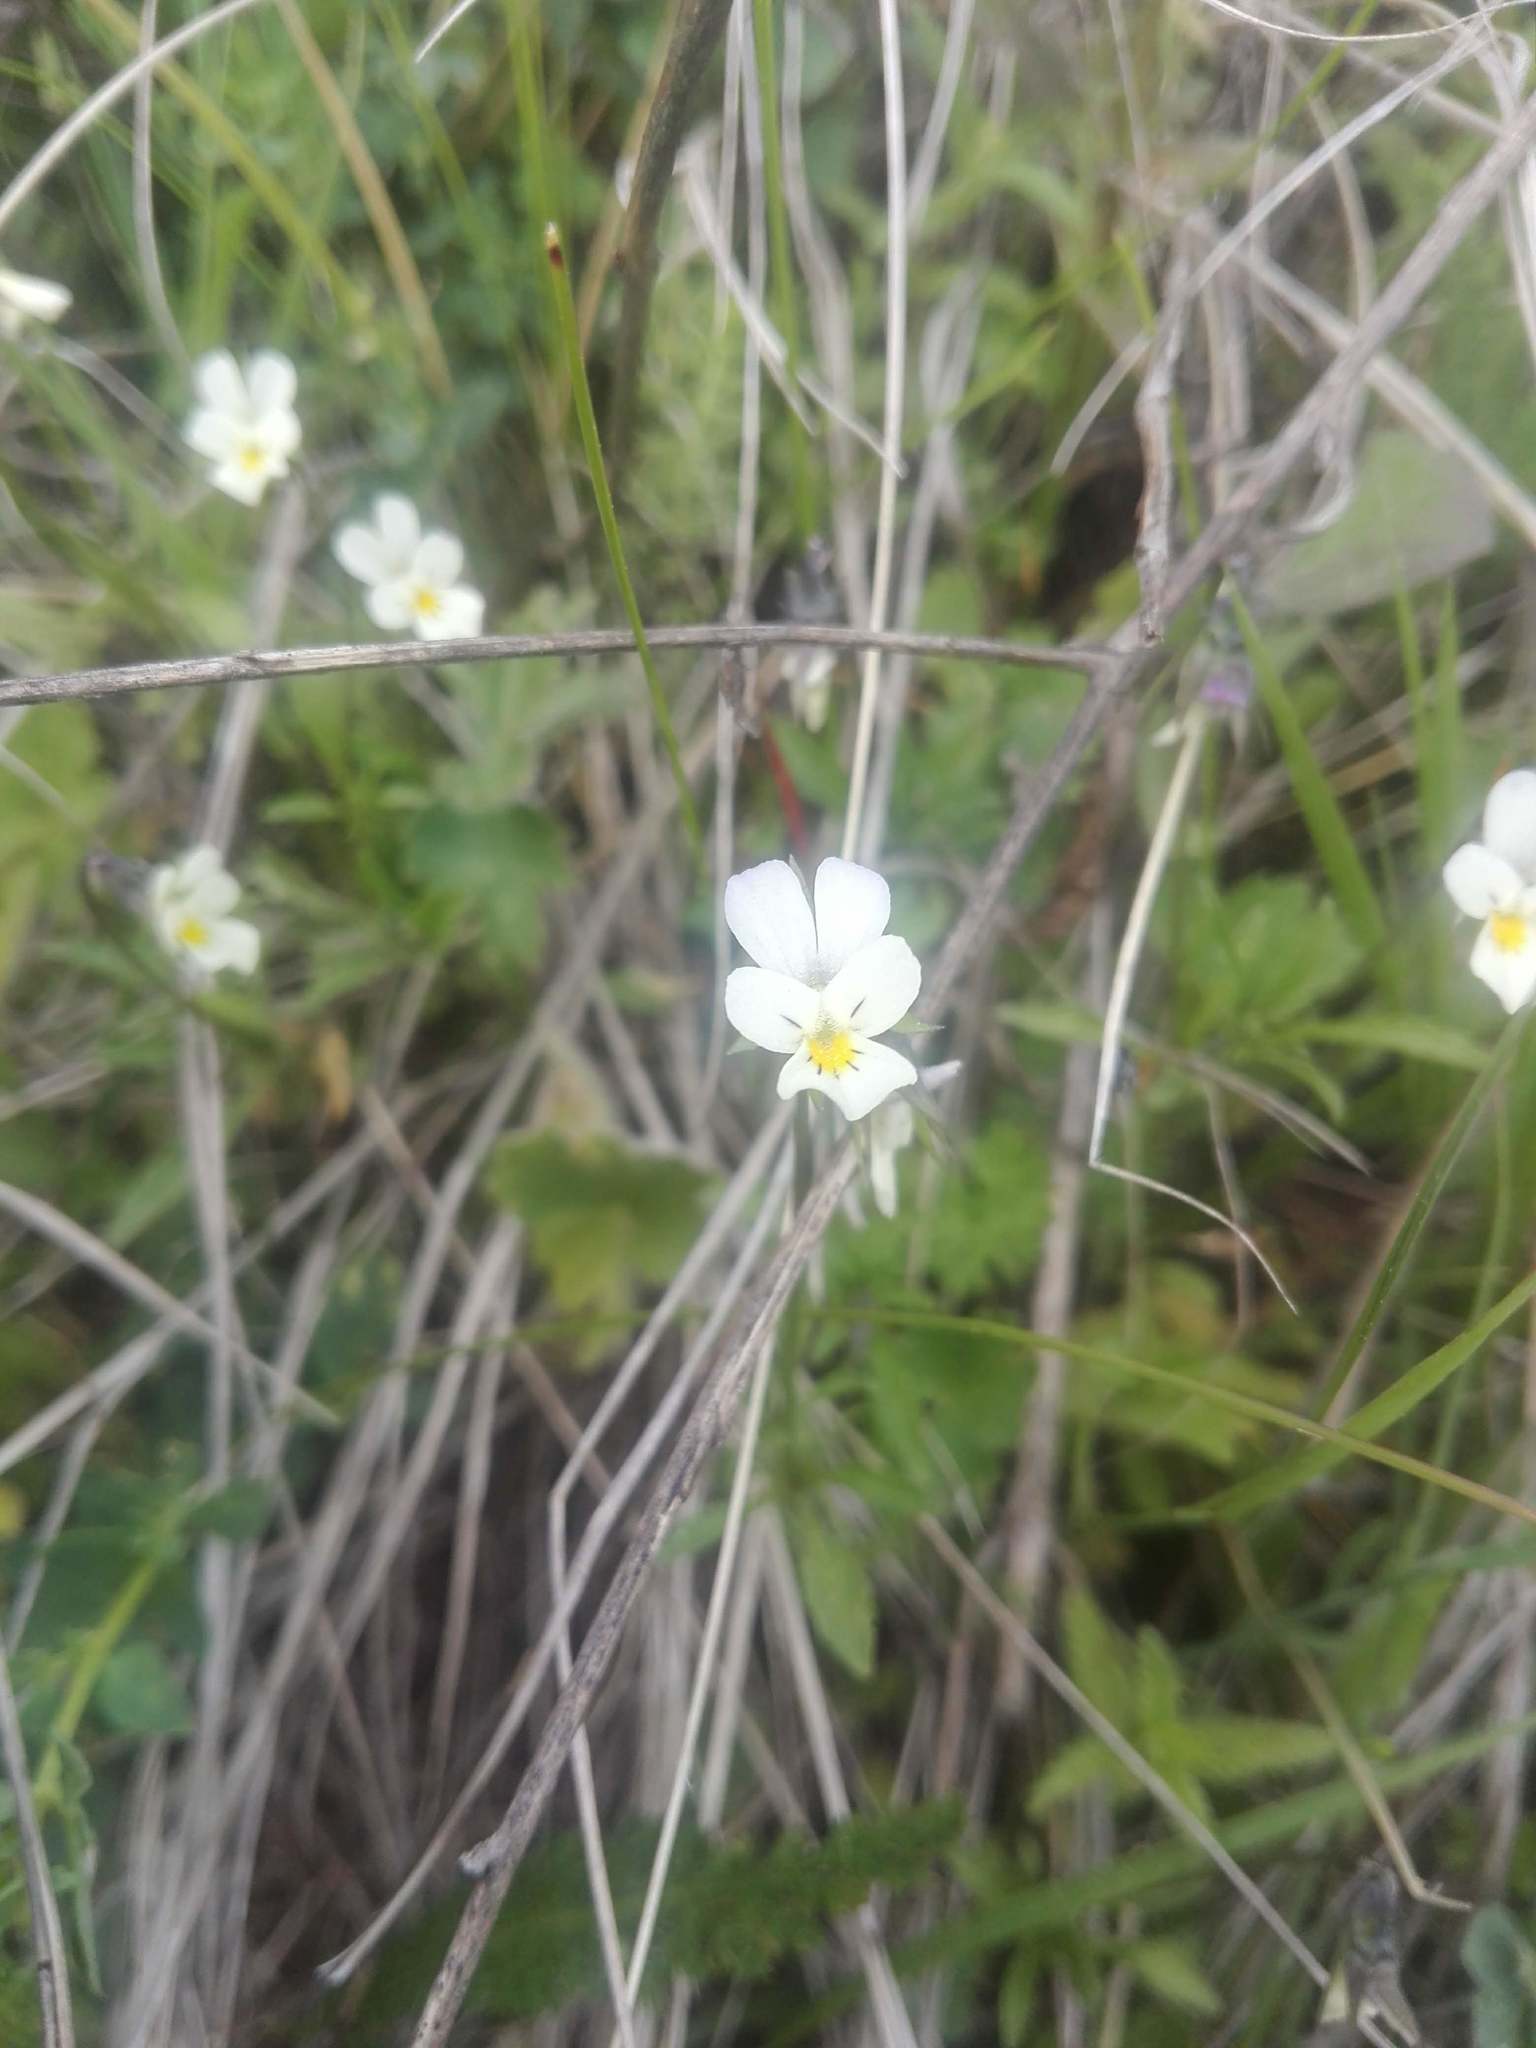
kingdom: Plantae
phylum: Tracheophyta
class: Magnoliopsida
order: Malpighiales
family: Violaceae
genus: Viola
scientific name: Viola arvensis
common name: Field pansy
